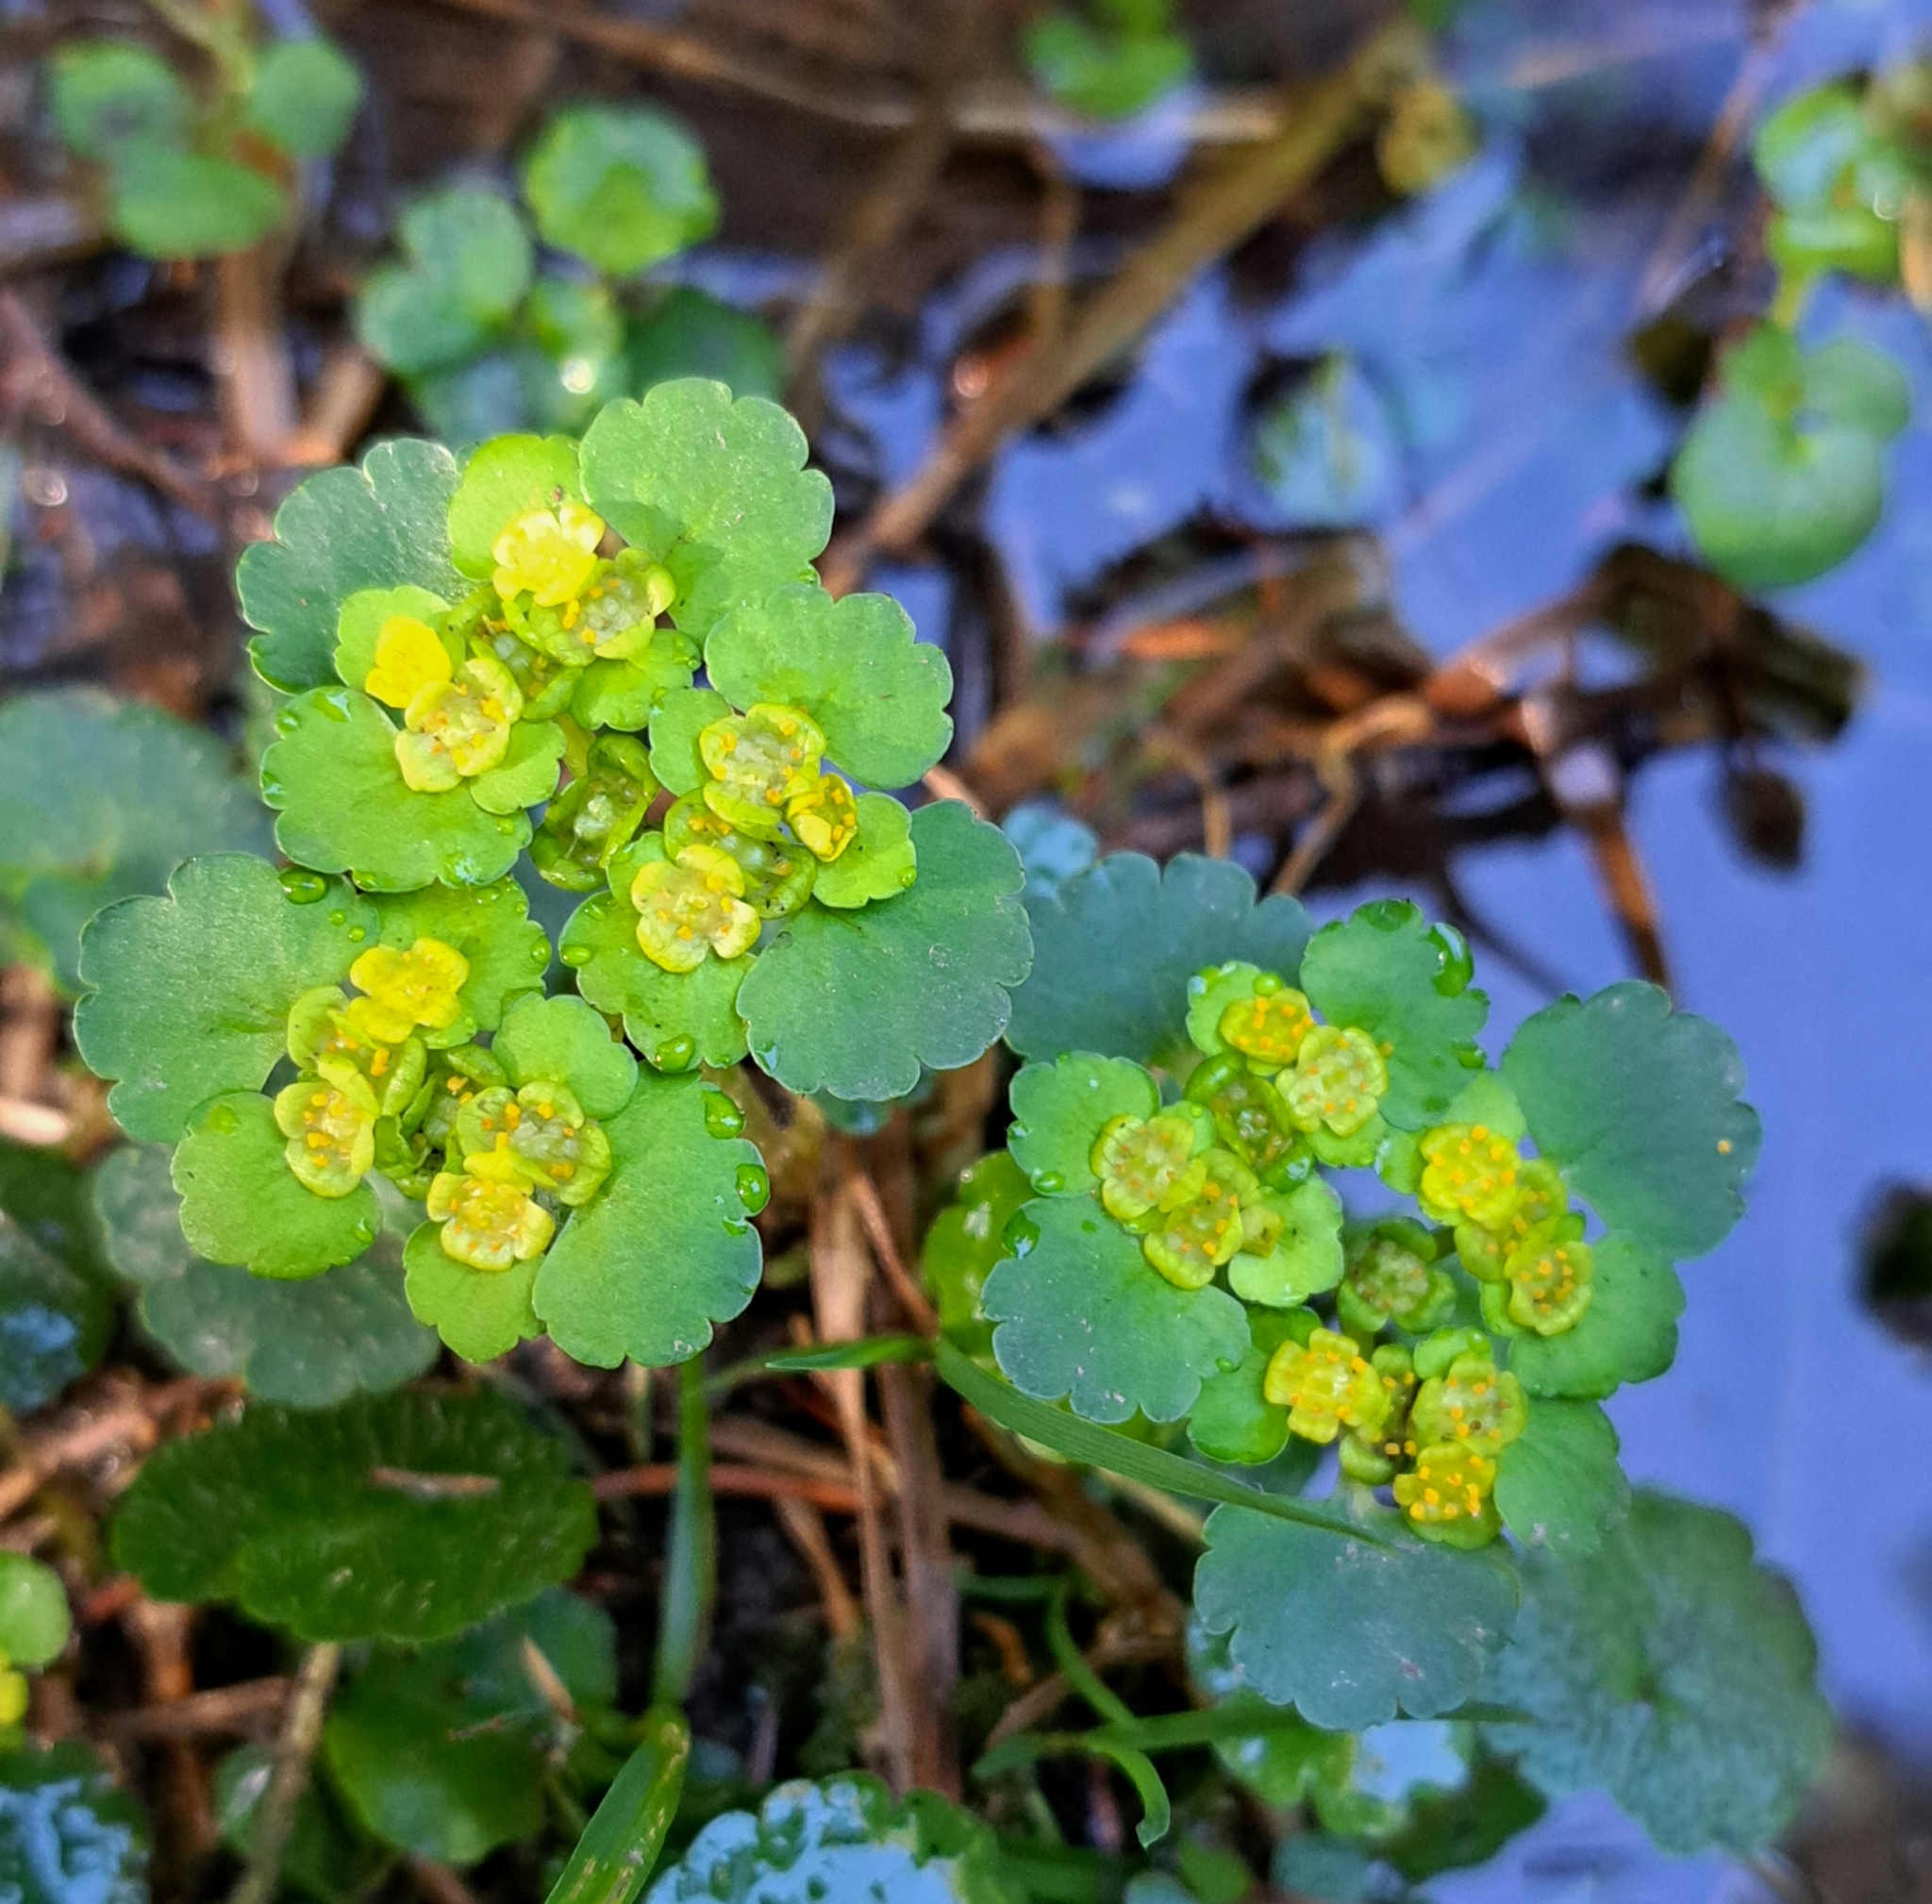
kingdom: Plantae
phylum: Tracheophyta
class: Magnoliopsida
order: Saxifragales
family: Saxifragaceae
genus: Chrysosplenium
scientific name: Chrysosplenium alternifolium
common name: Alternate-leaved golden-saxifrage
